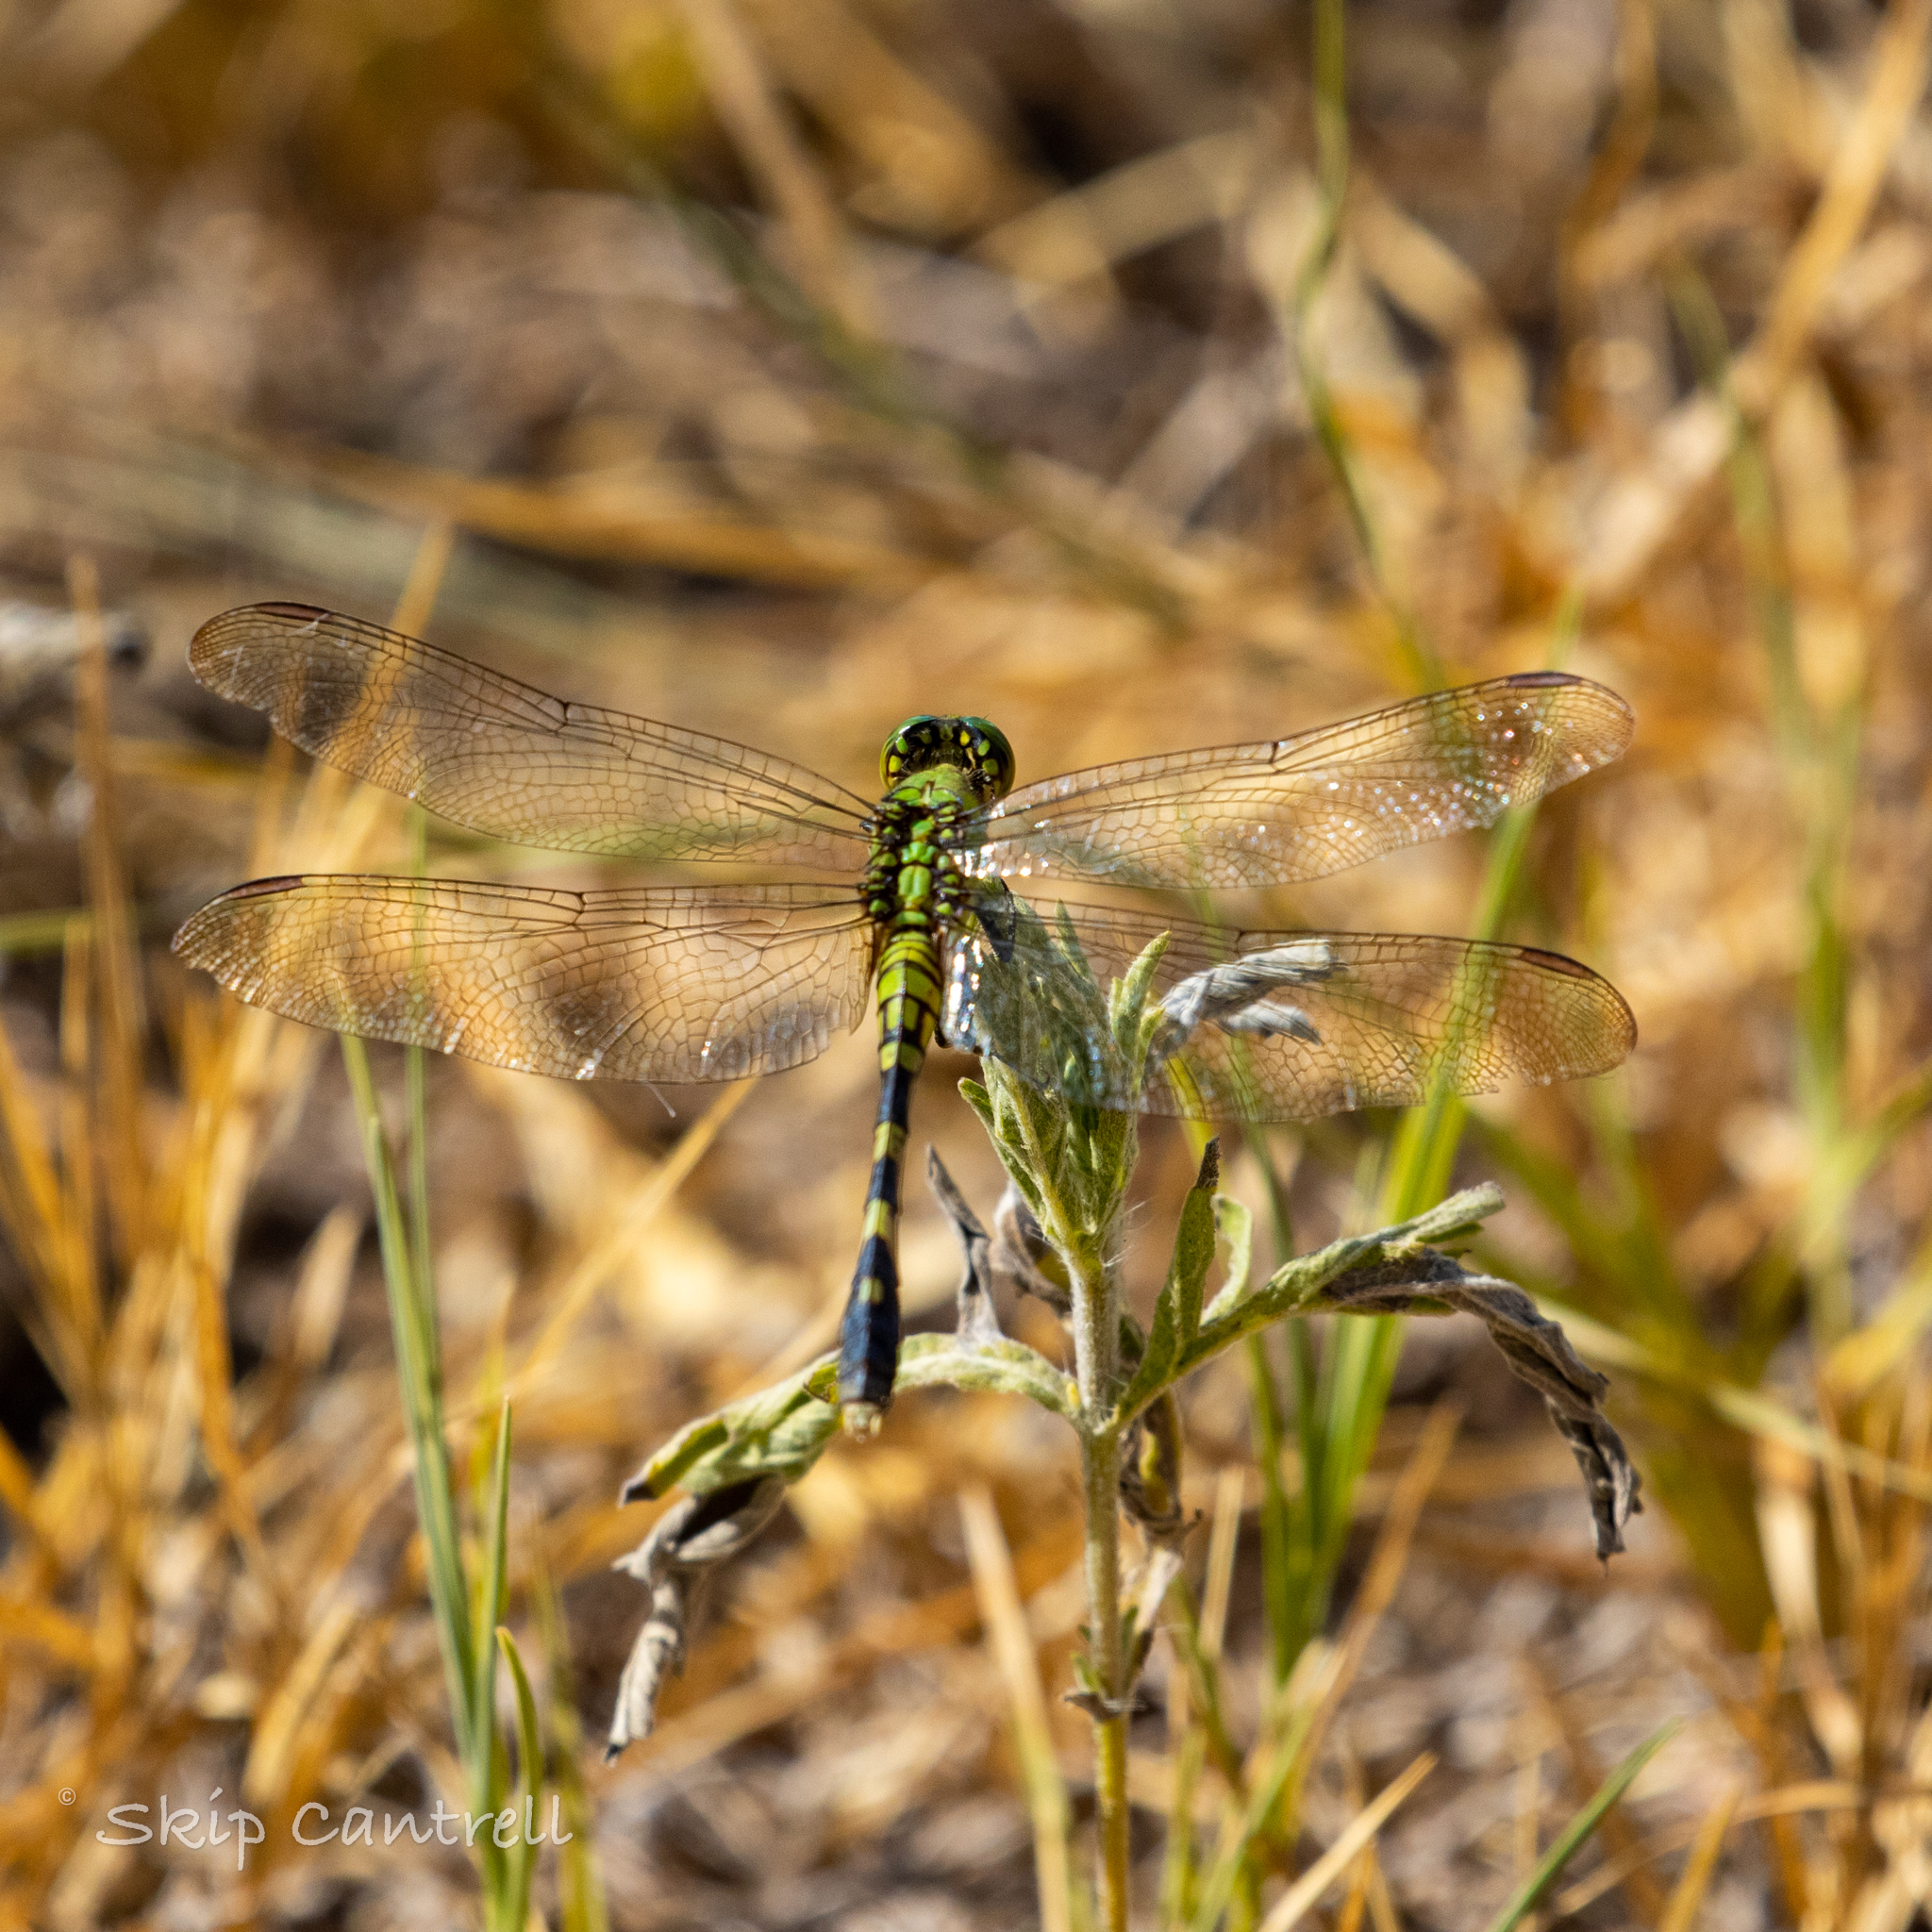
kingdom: Animalia
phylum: Arthropoda
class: Insecta
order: Odonata
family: Libellulidae
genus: Erythemis
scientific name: Erythemis simplicicollis
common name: Eastern pondhawk
